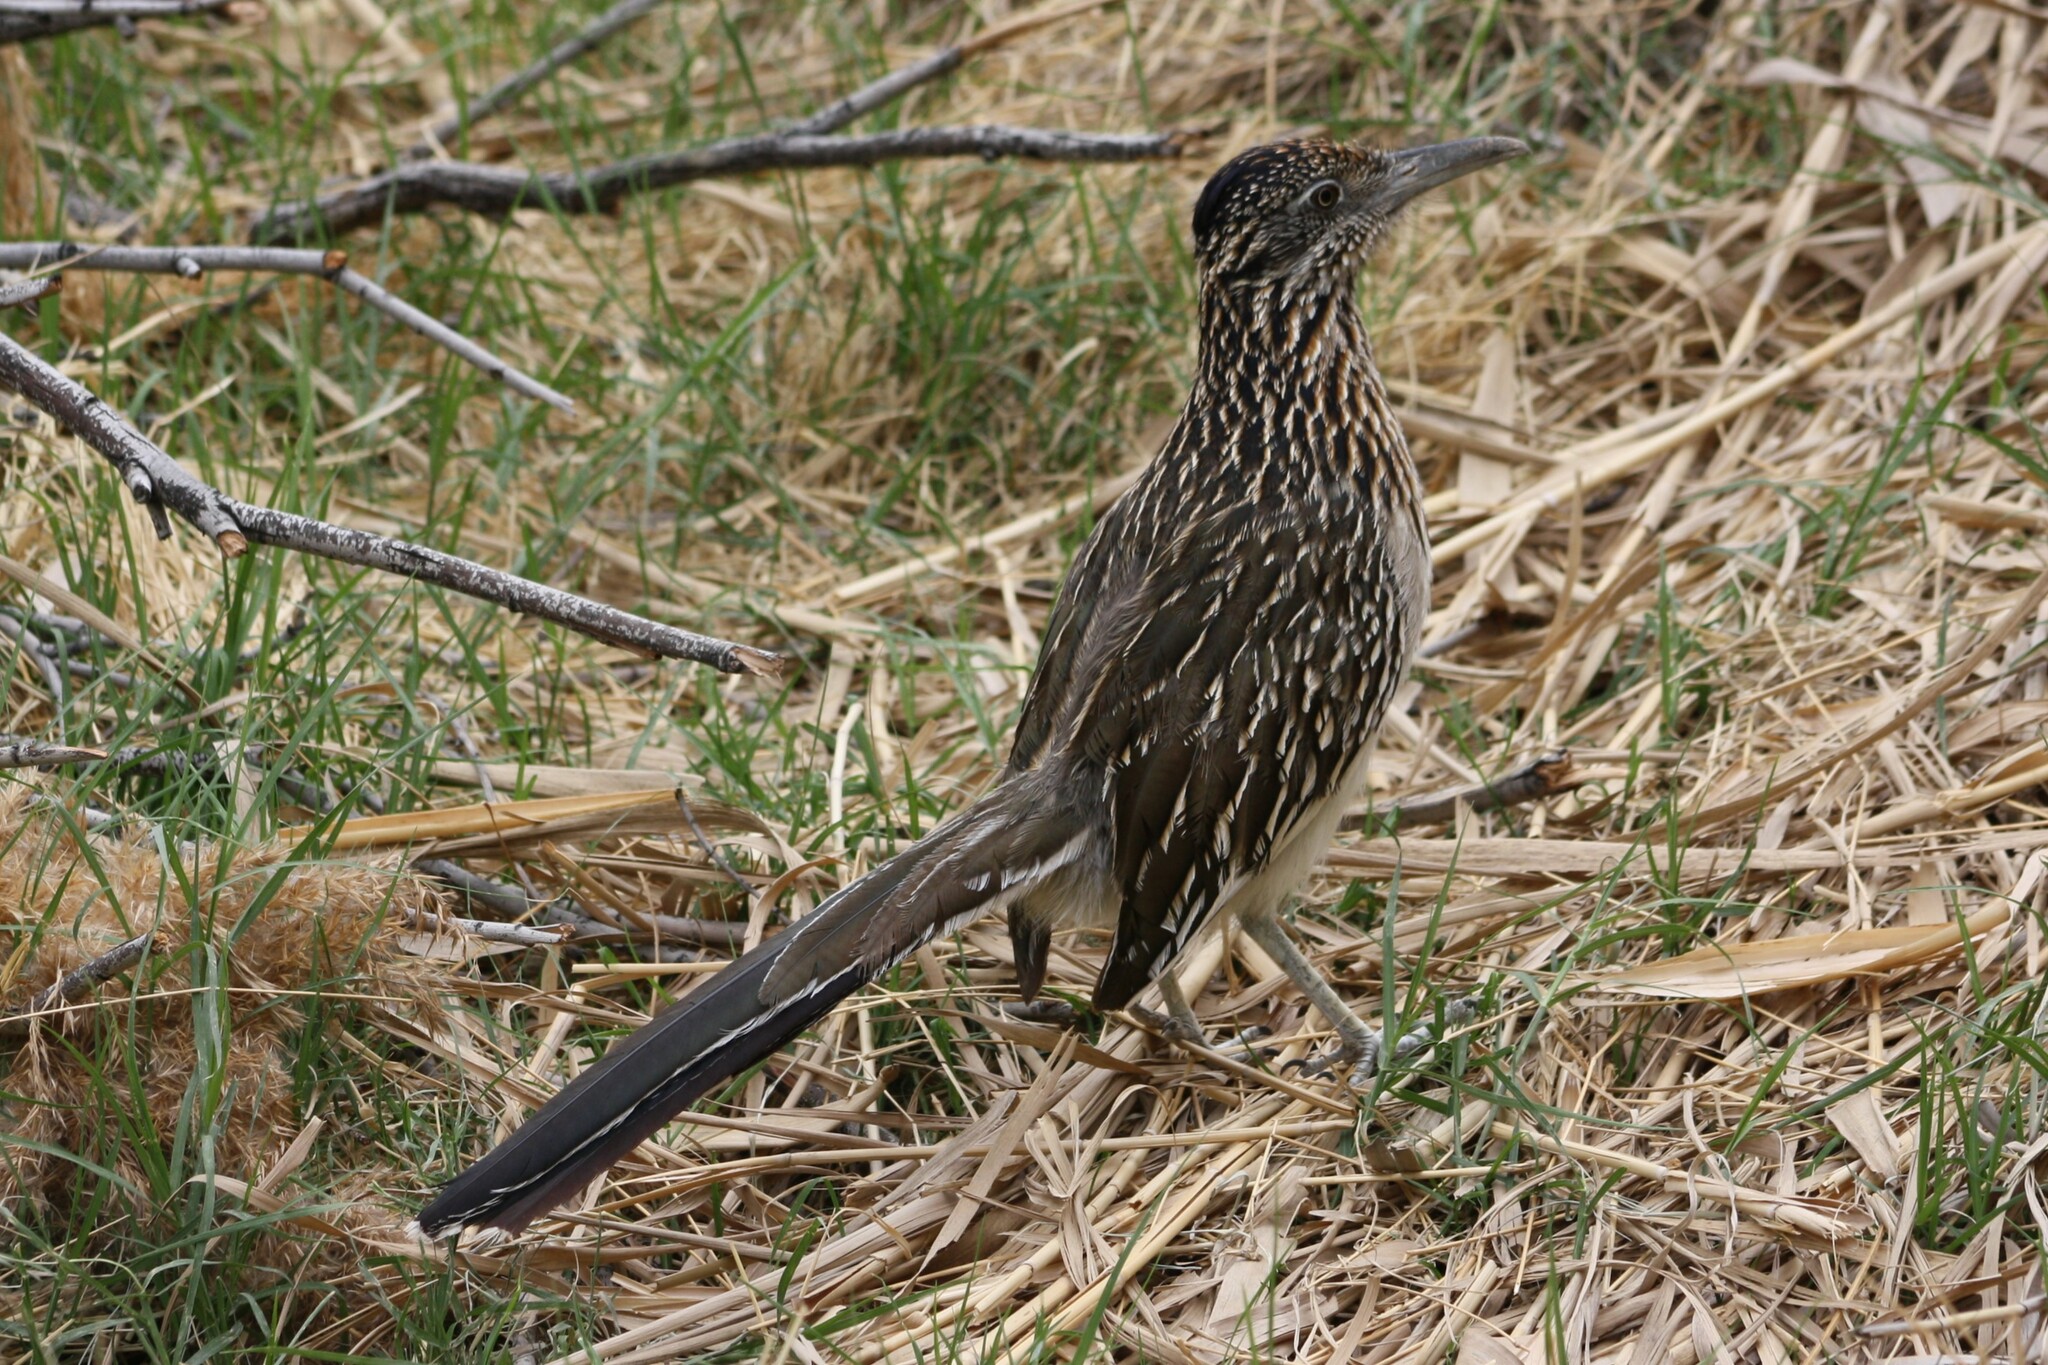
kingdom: Animalia
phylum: Chordata
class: Aves
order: Cuculiformes
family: Cuculidae
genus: Geococcyx
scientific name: Geococcyx californianus
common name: Greater roadrunner
